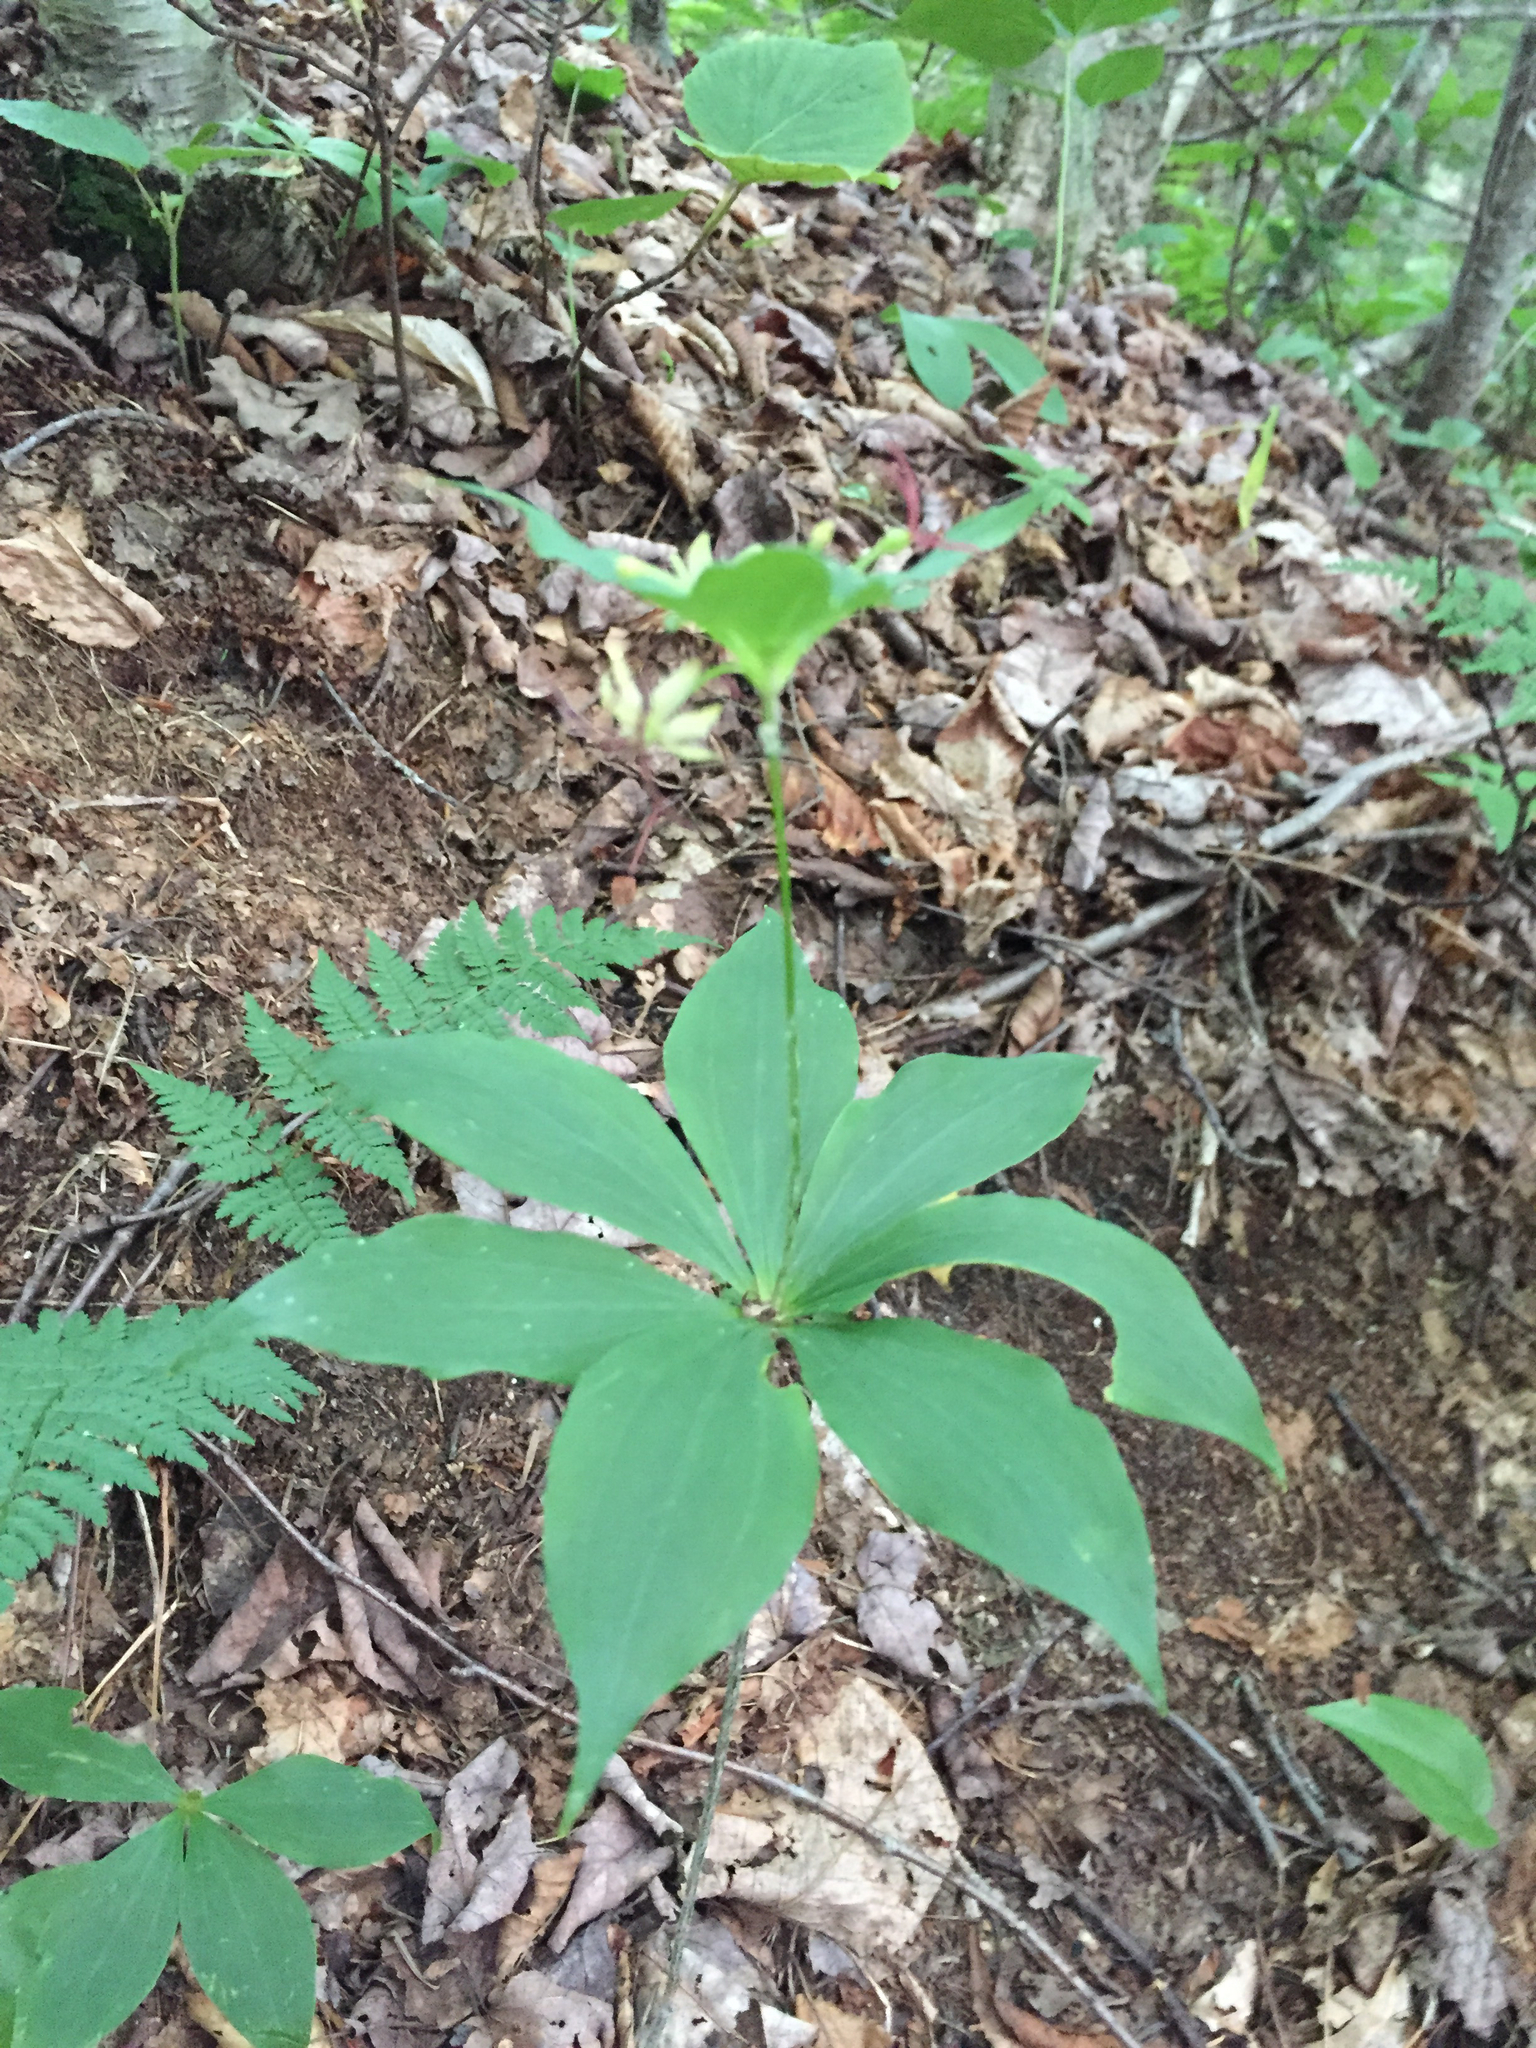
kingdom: Plantae
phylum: Tracheophyta
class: Liliopsida
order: Liliales
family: Liliaceae
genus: Medeola
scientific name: Medeola virginiana
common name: Indian cucumber-root
